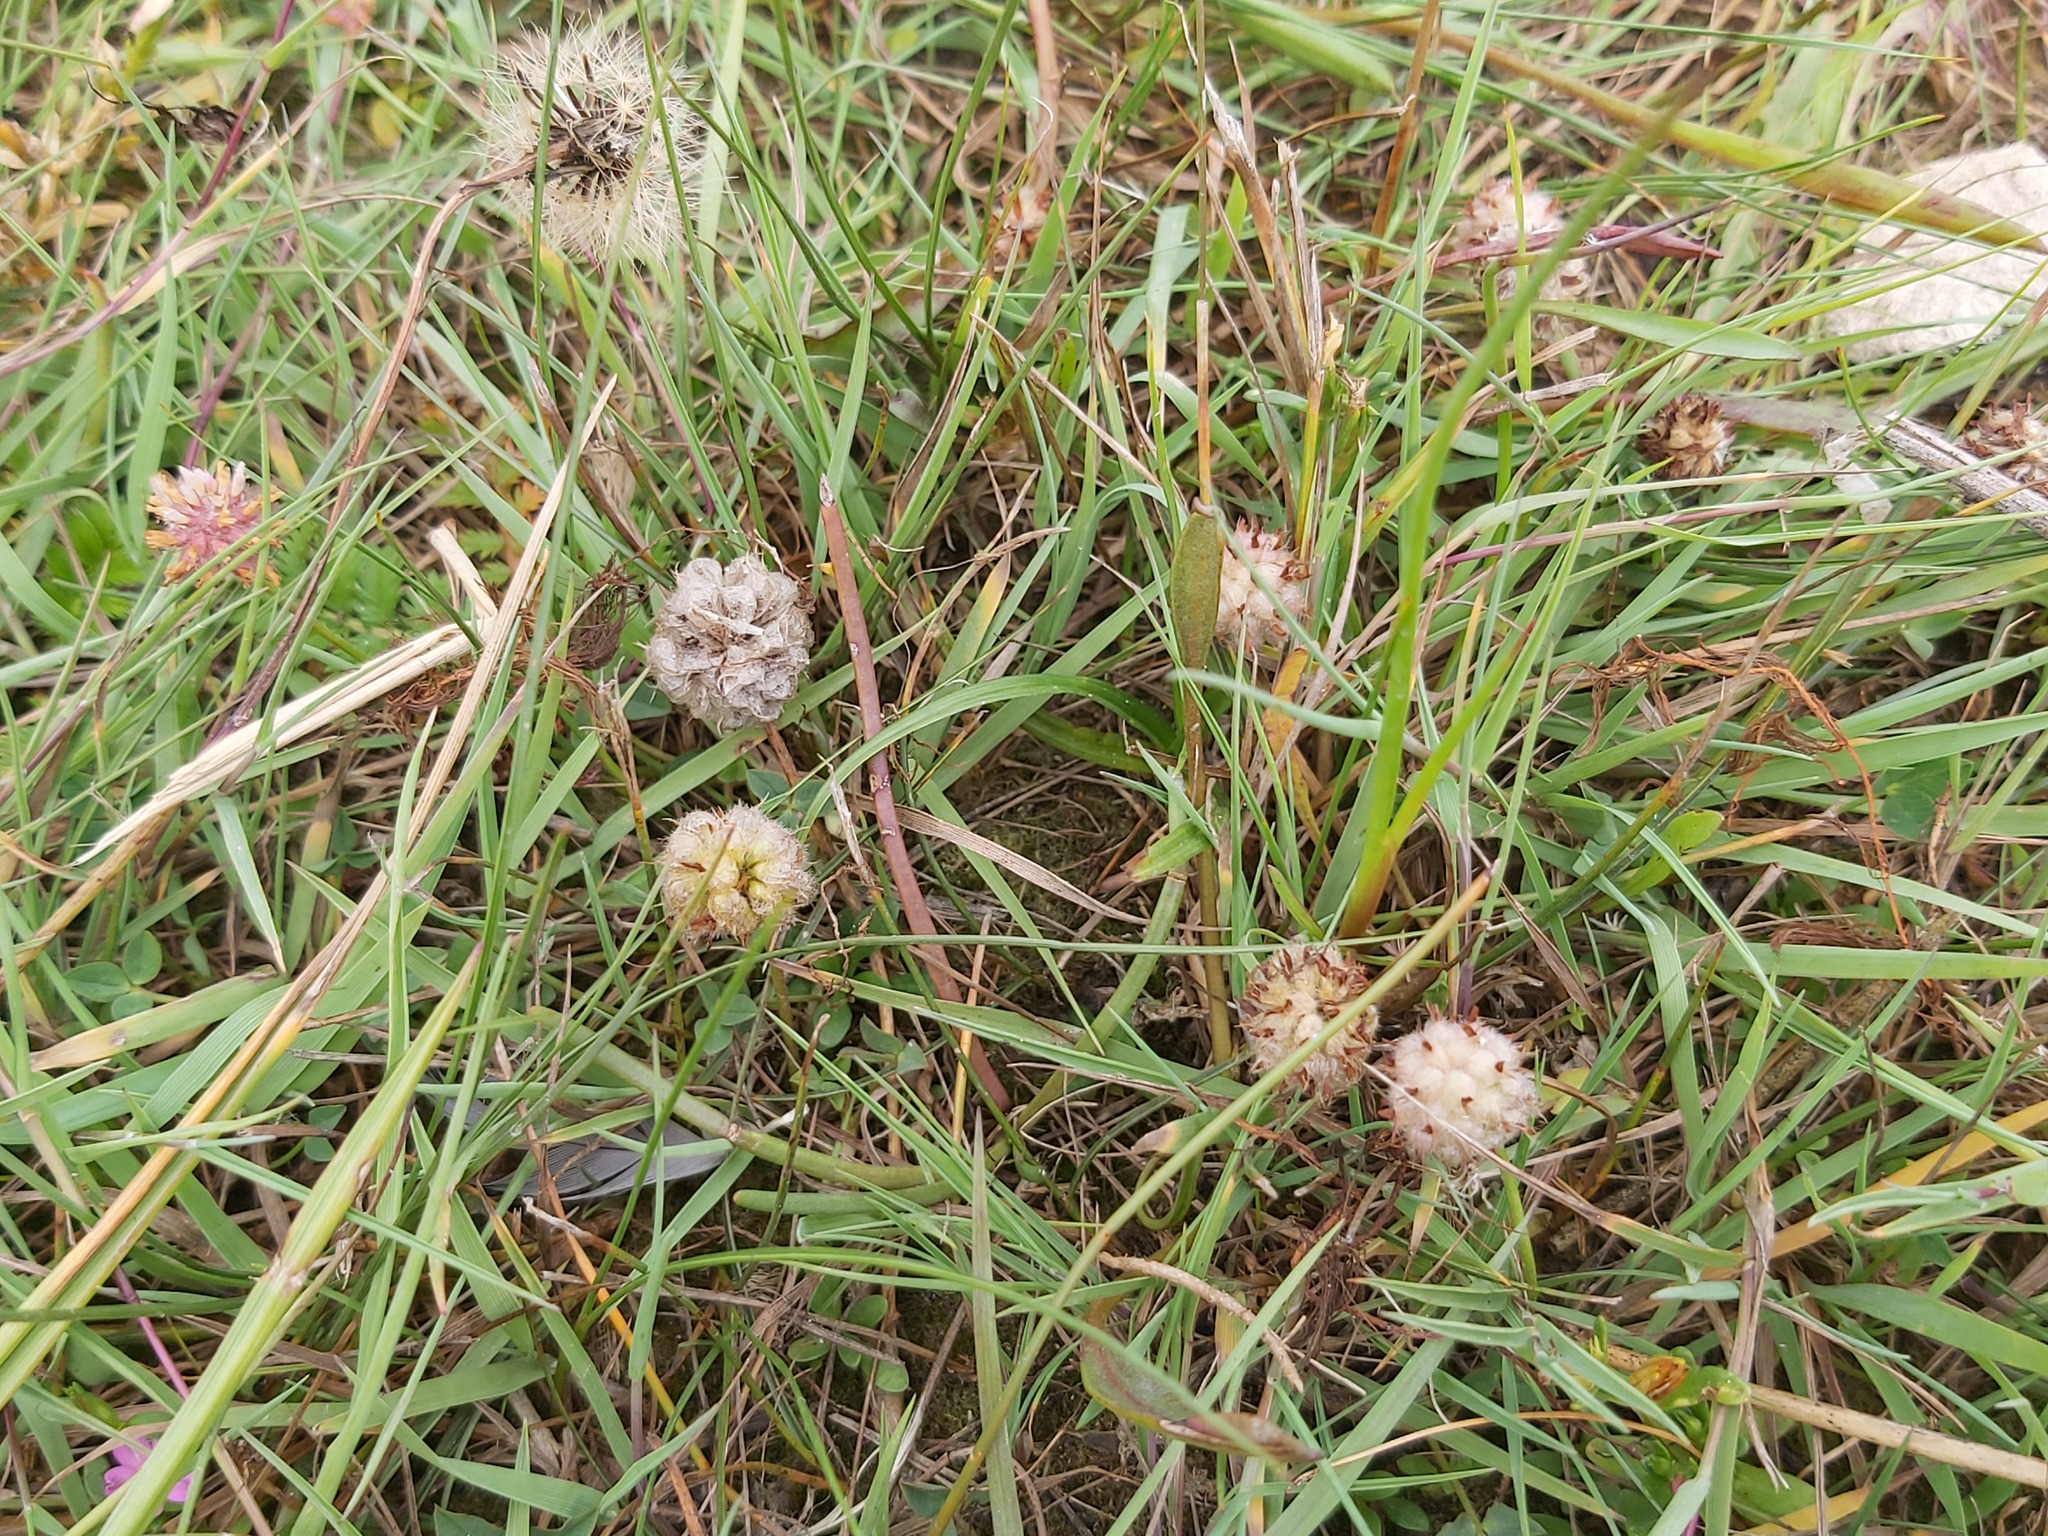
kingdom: Plantae
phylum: Tracheophyta
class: Magnoliopsida
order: Fabales
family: Fabaceae
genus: Trifolium
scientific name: Trifolium fragiferum
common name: Strawberry clover
